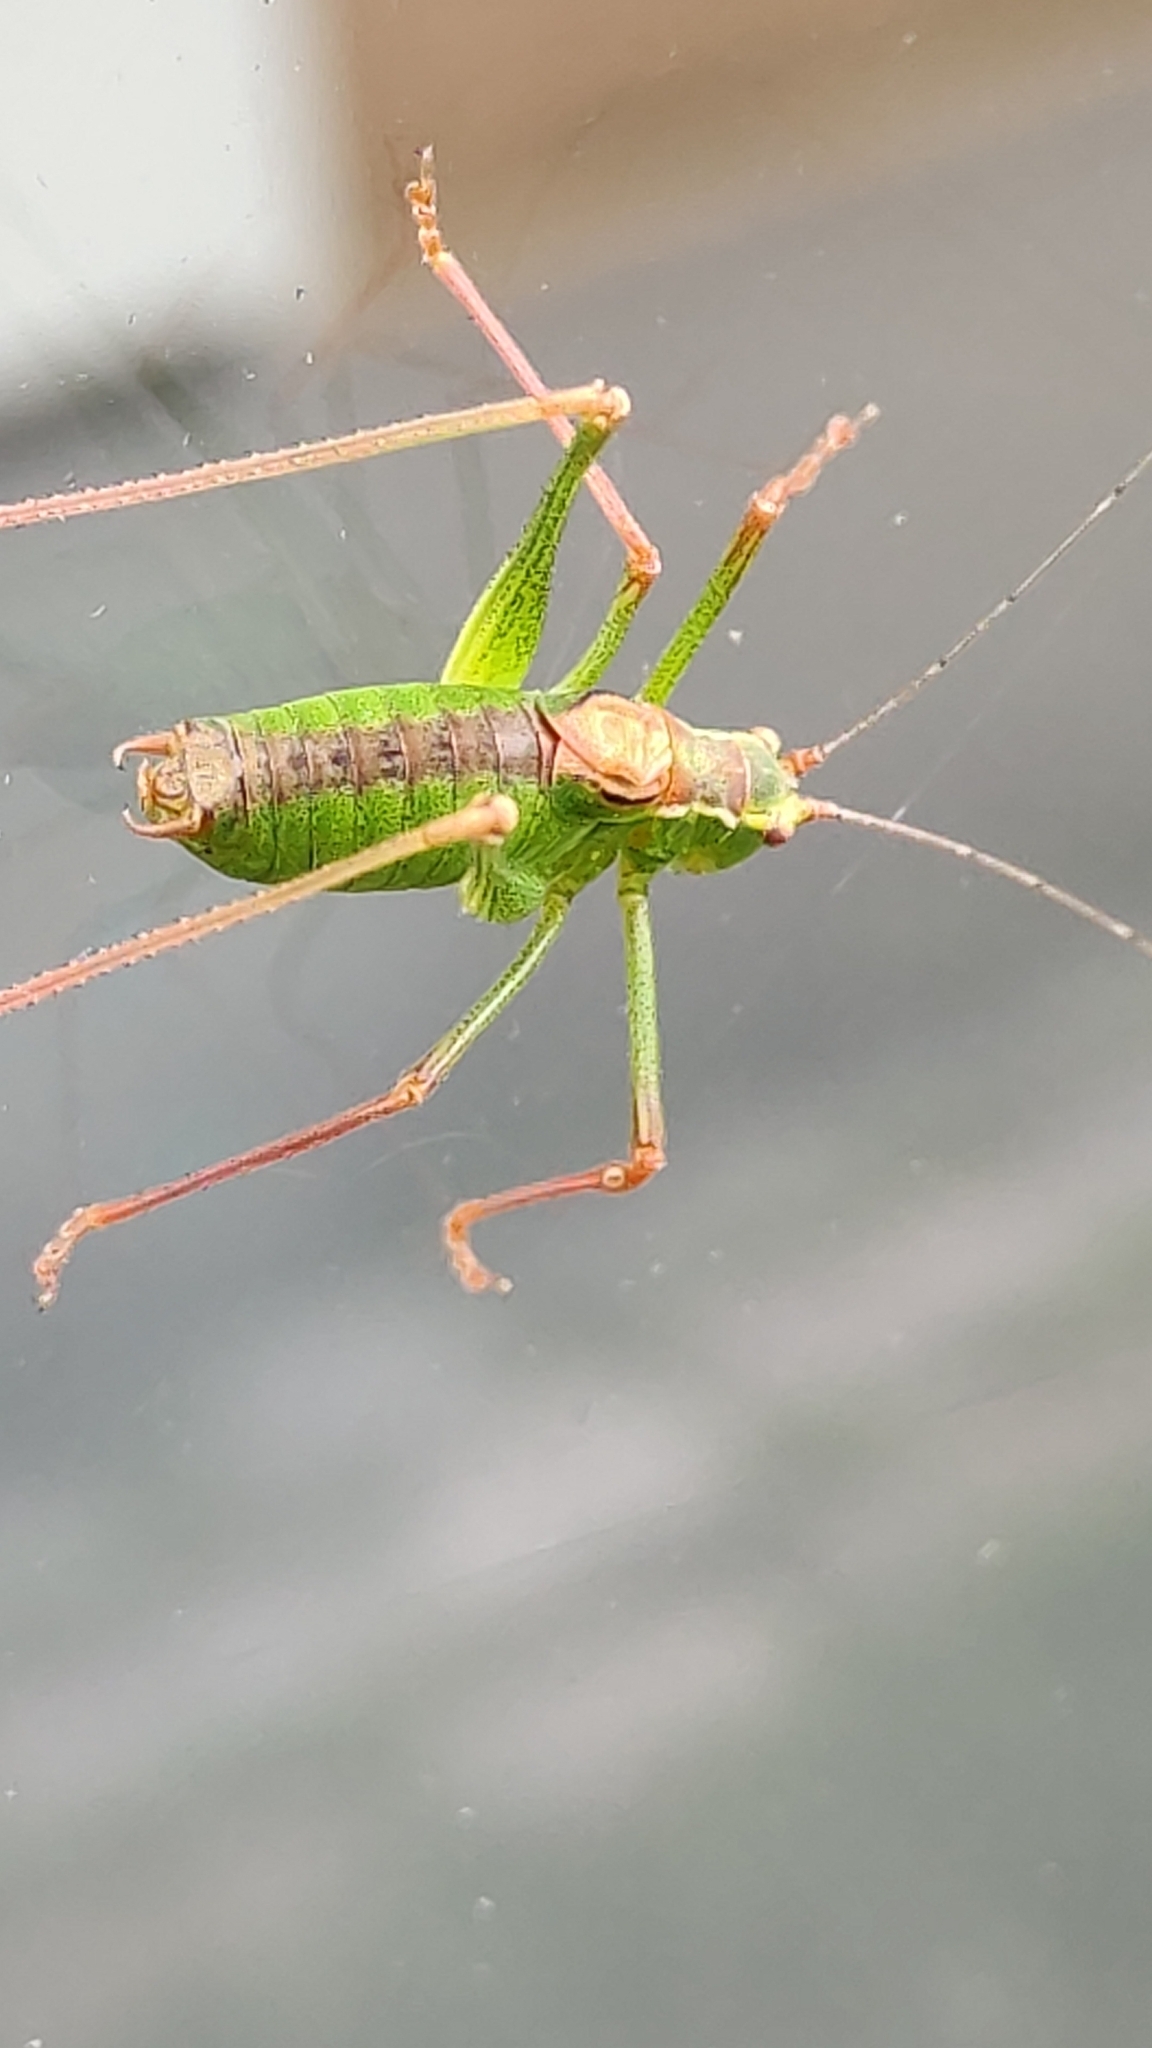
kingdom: Animalia
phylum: Arthropoda
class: Insecta
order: Orthoptera
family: Tettigoniidae
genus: Leptophyes
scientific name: Leptophyes punctatissima
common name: Speckled bush-cricket
